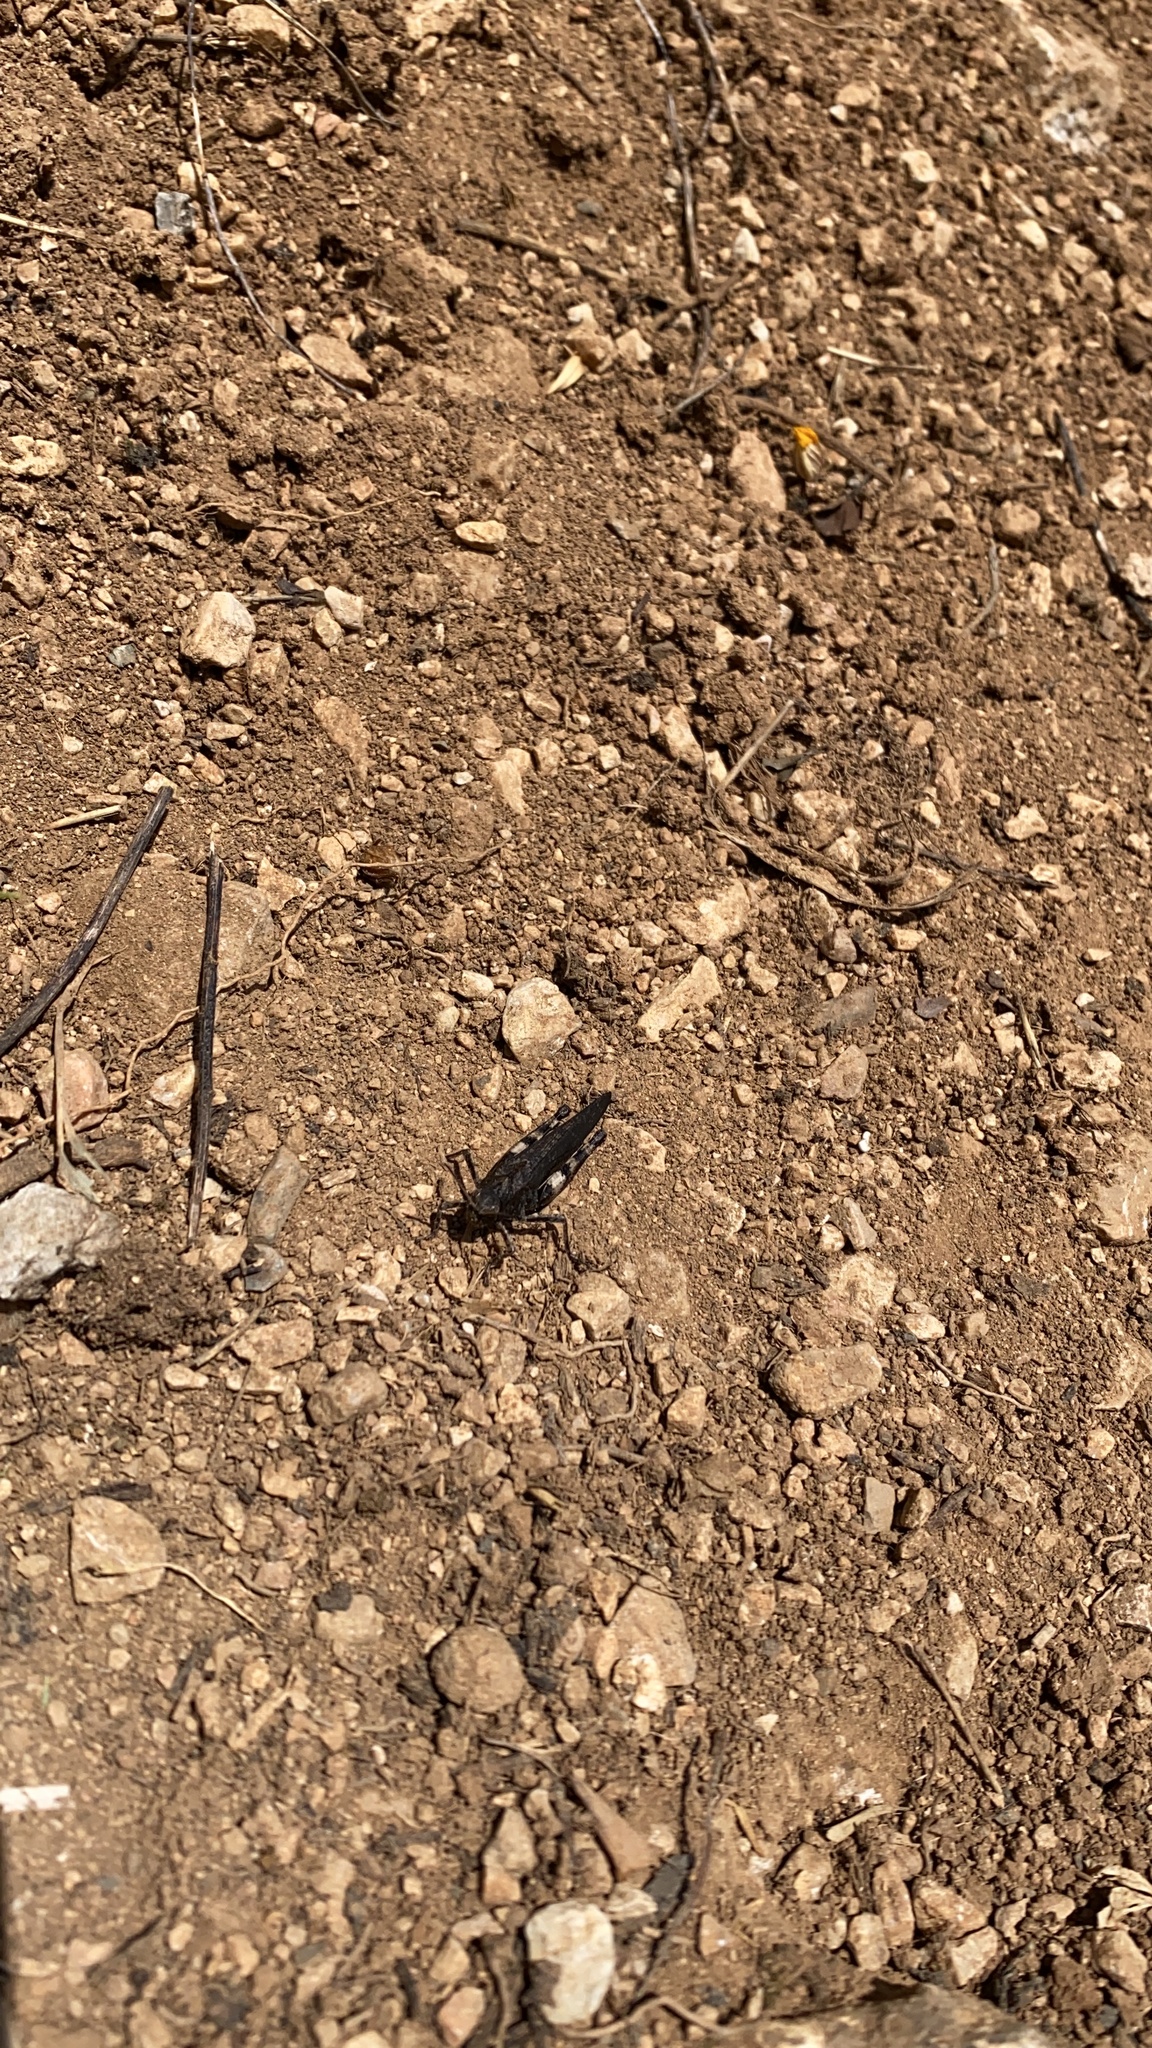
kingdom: Animalia
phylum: Arthropoda
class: Insecta
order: Orthoptera
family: Acrididae
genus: Psophus
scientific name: Psophus stridulus
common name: Rattle grasshopper
